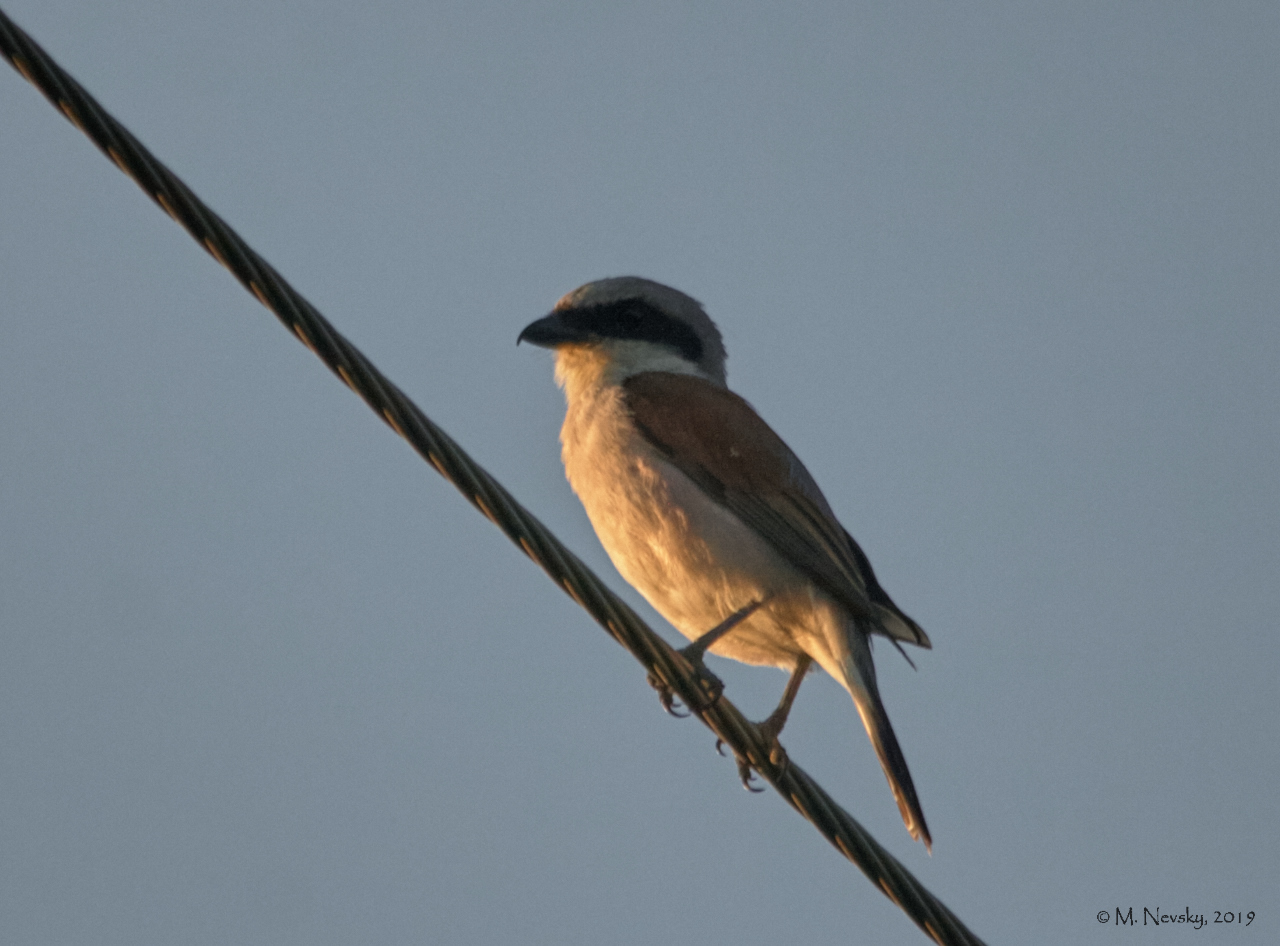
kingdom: Animalia
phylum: Chordata
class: Aves
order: Passeriformes
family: Laniidae
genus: Lanius
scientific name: Lanius collurio
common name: Red-backed shrike
